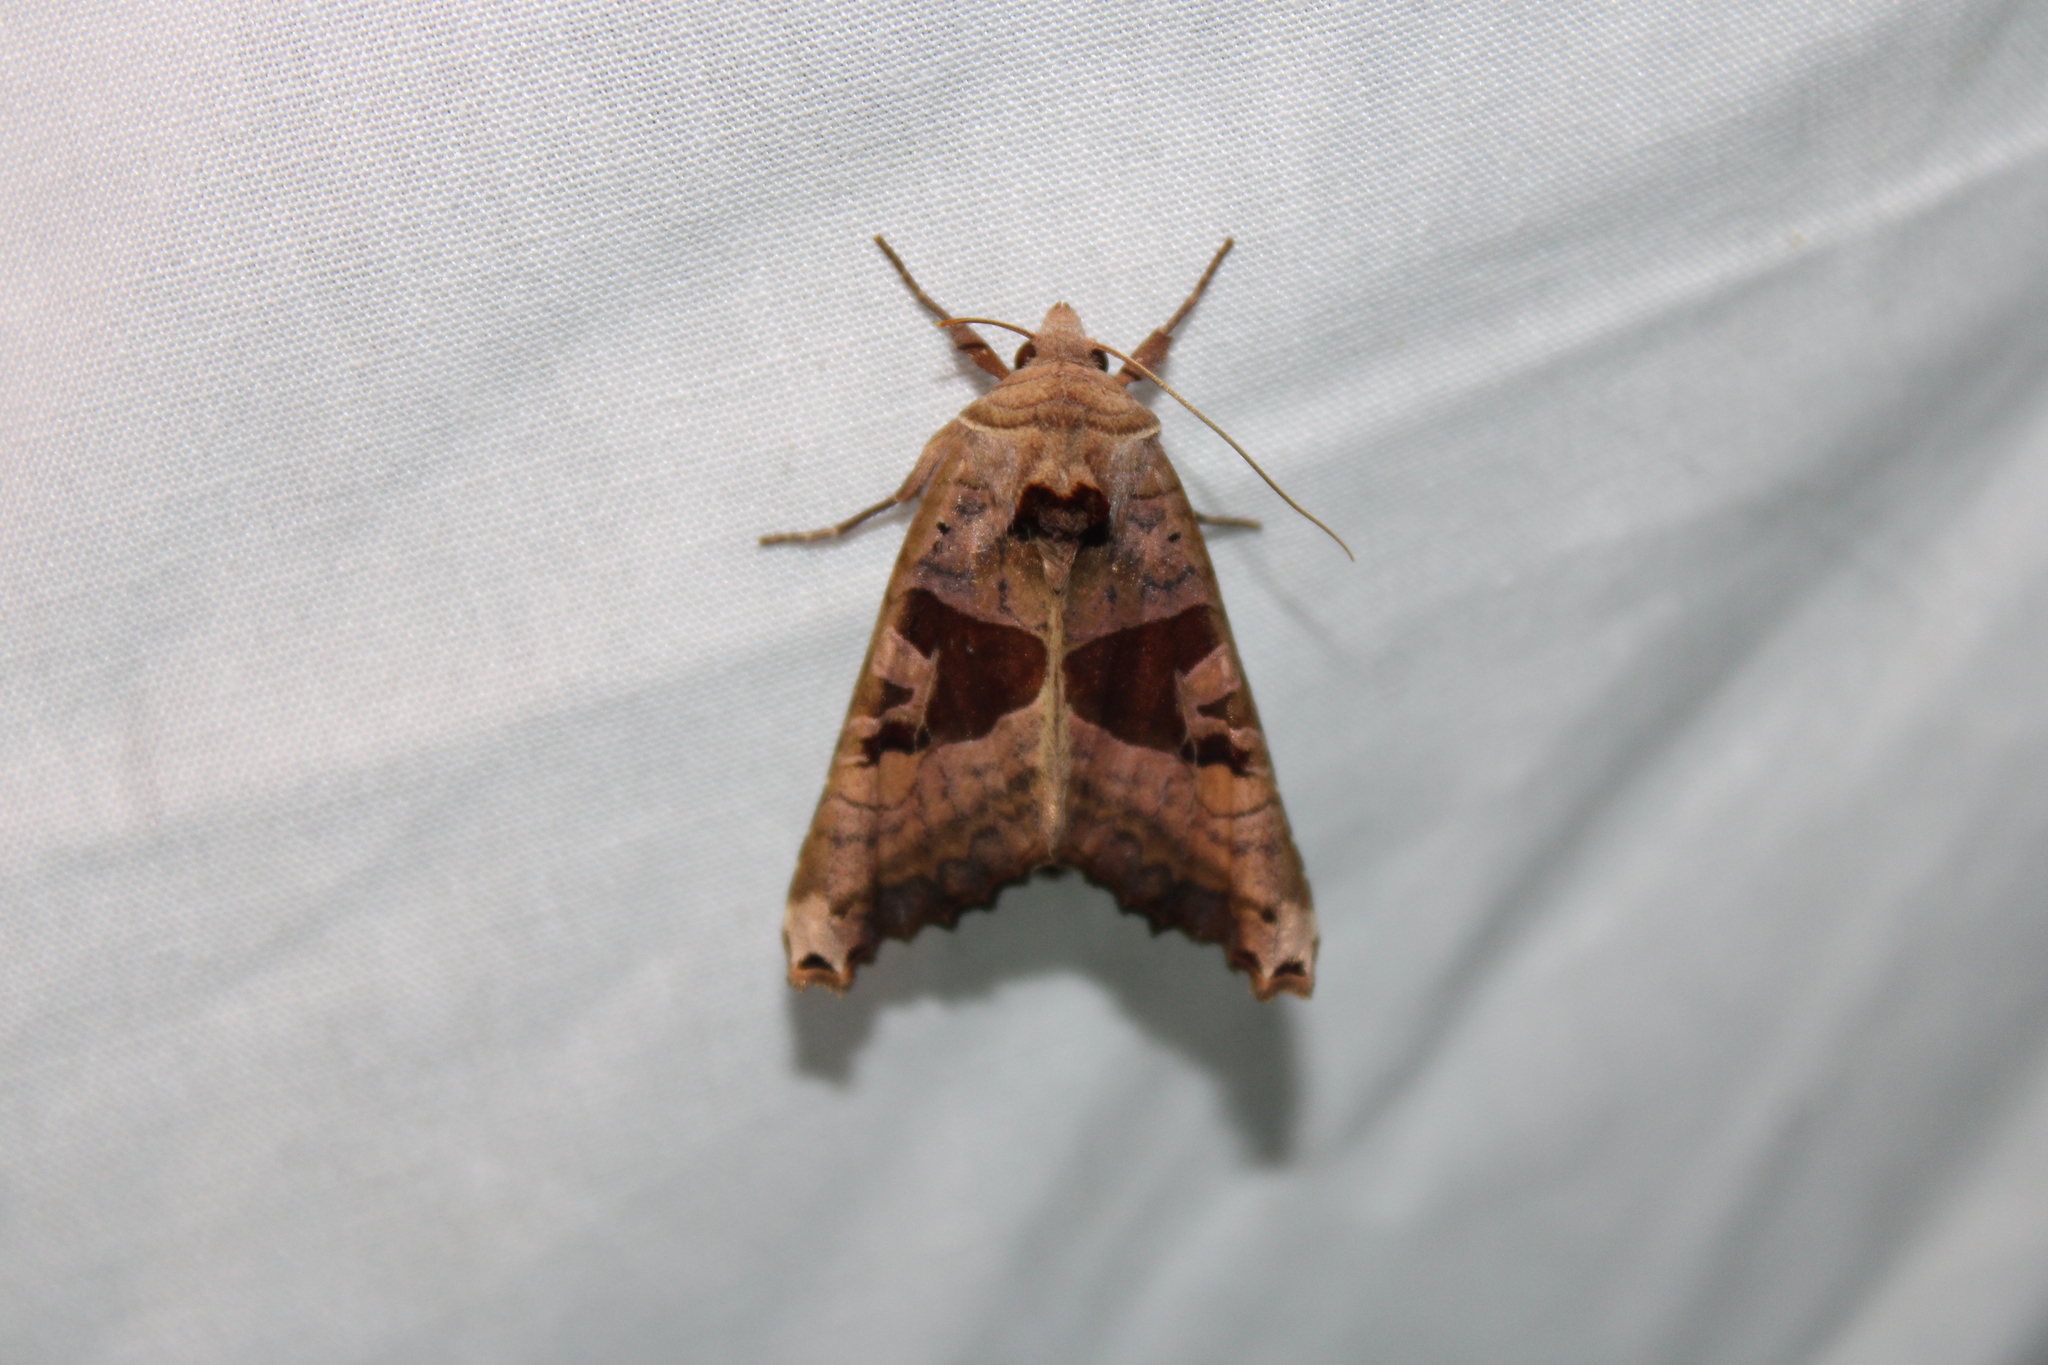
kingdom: Animalia
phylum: Arthropoda
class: Insecta
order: Lepidoptera
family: Noctuidae
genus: Phlogophora
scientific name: Phlogophora periculosa
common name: Brown angle shades
